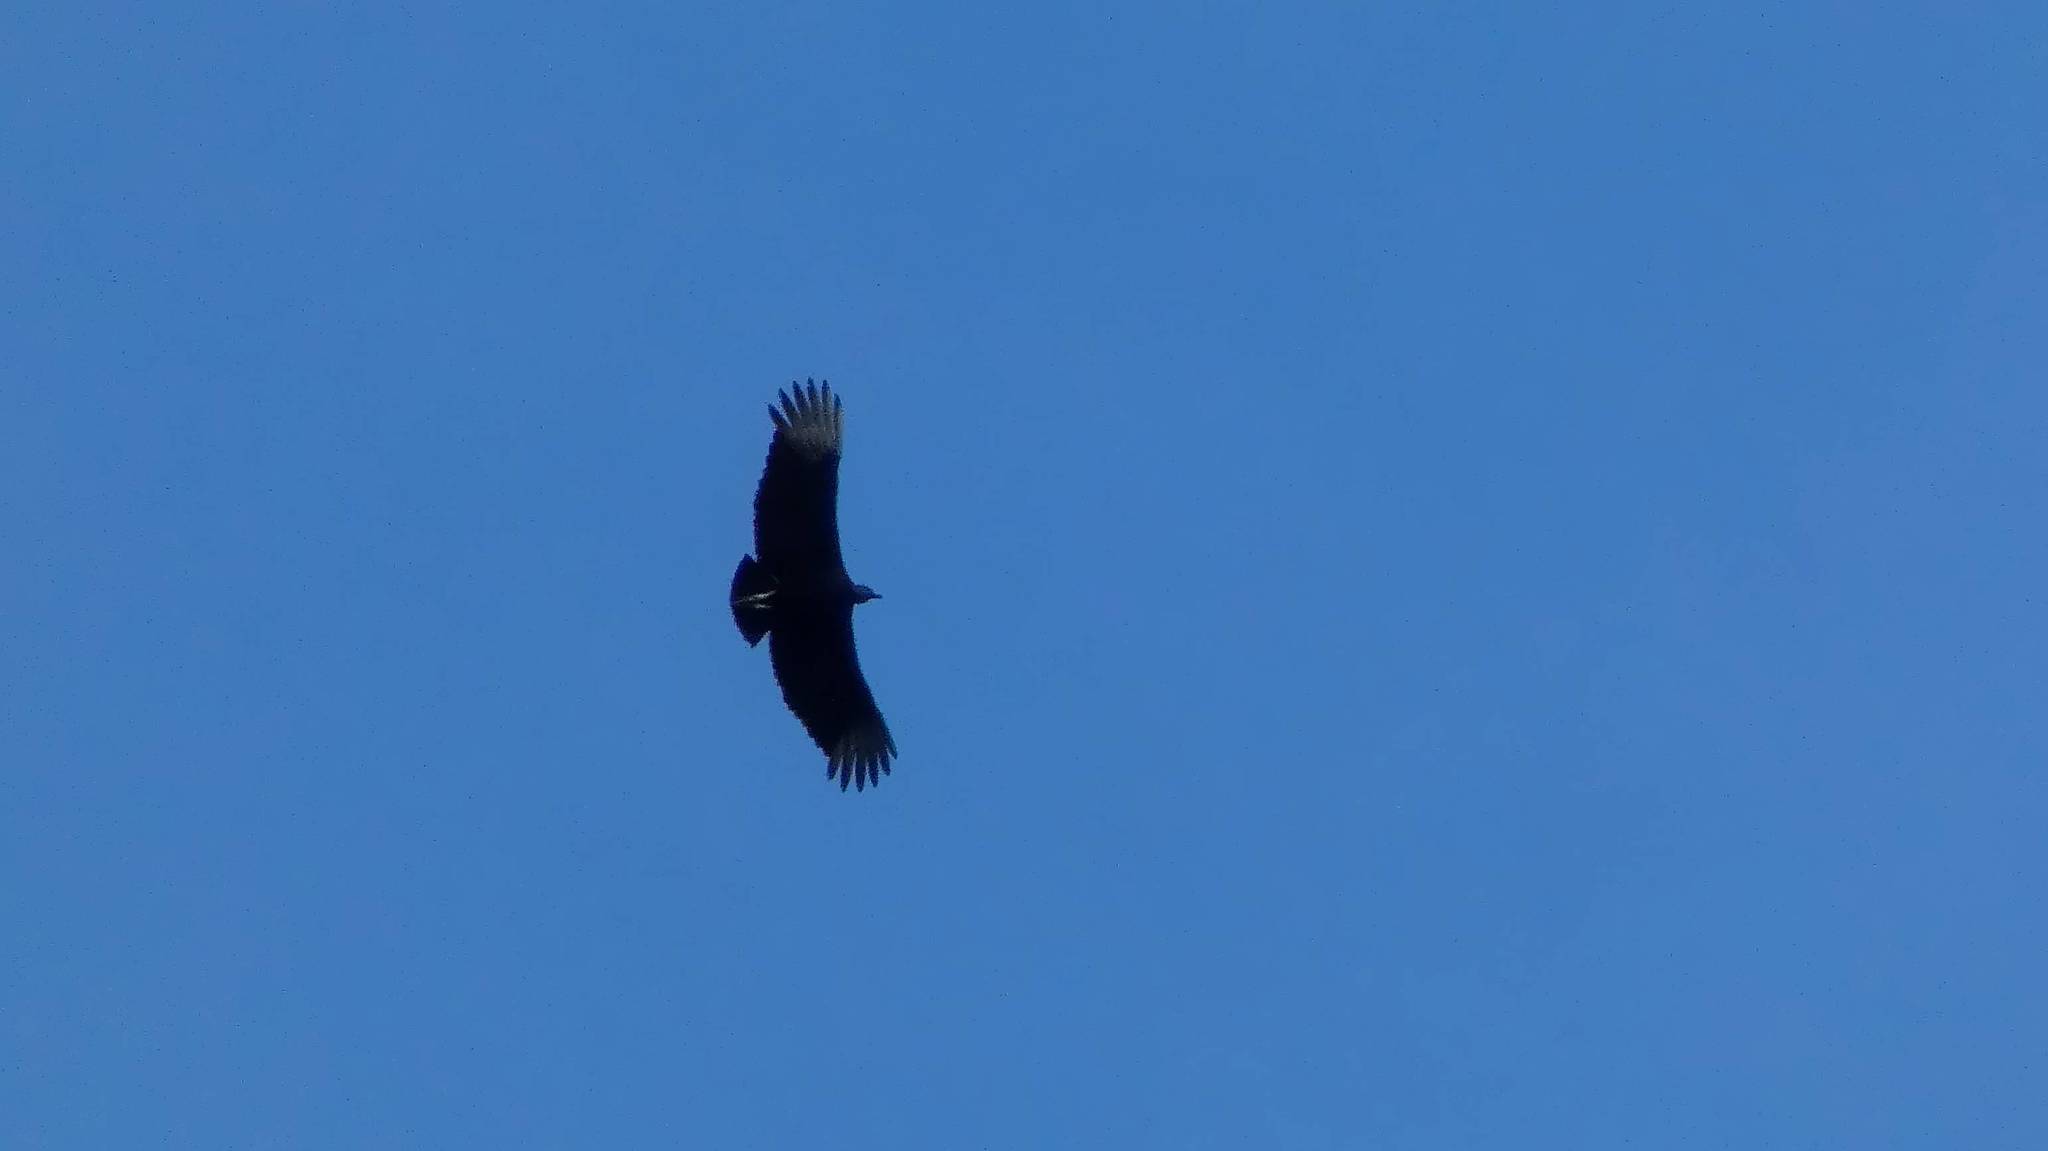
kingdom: Animalia
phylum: Chordata
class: Aves
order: Accipitriformes
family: Cathartidae
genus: Coragyps
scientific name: Coragyps atratus
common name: Black vulture
